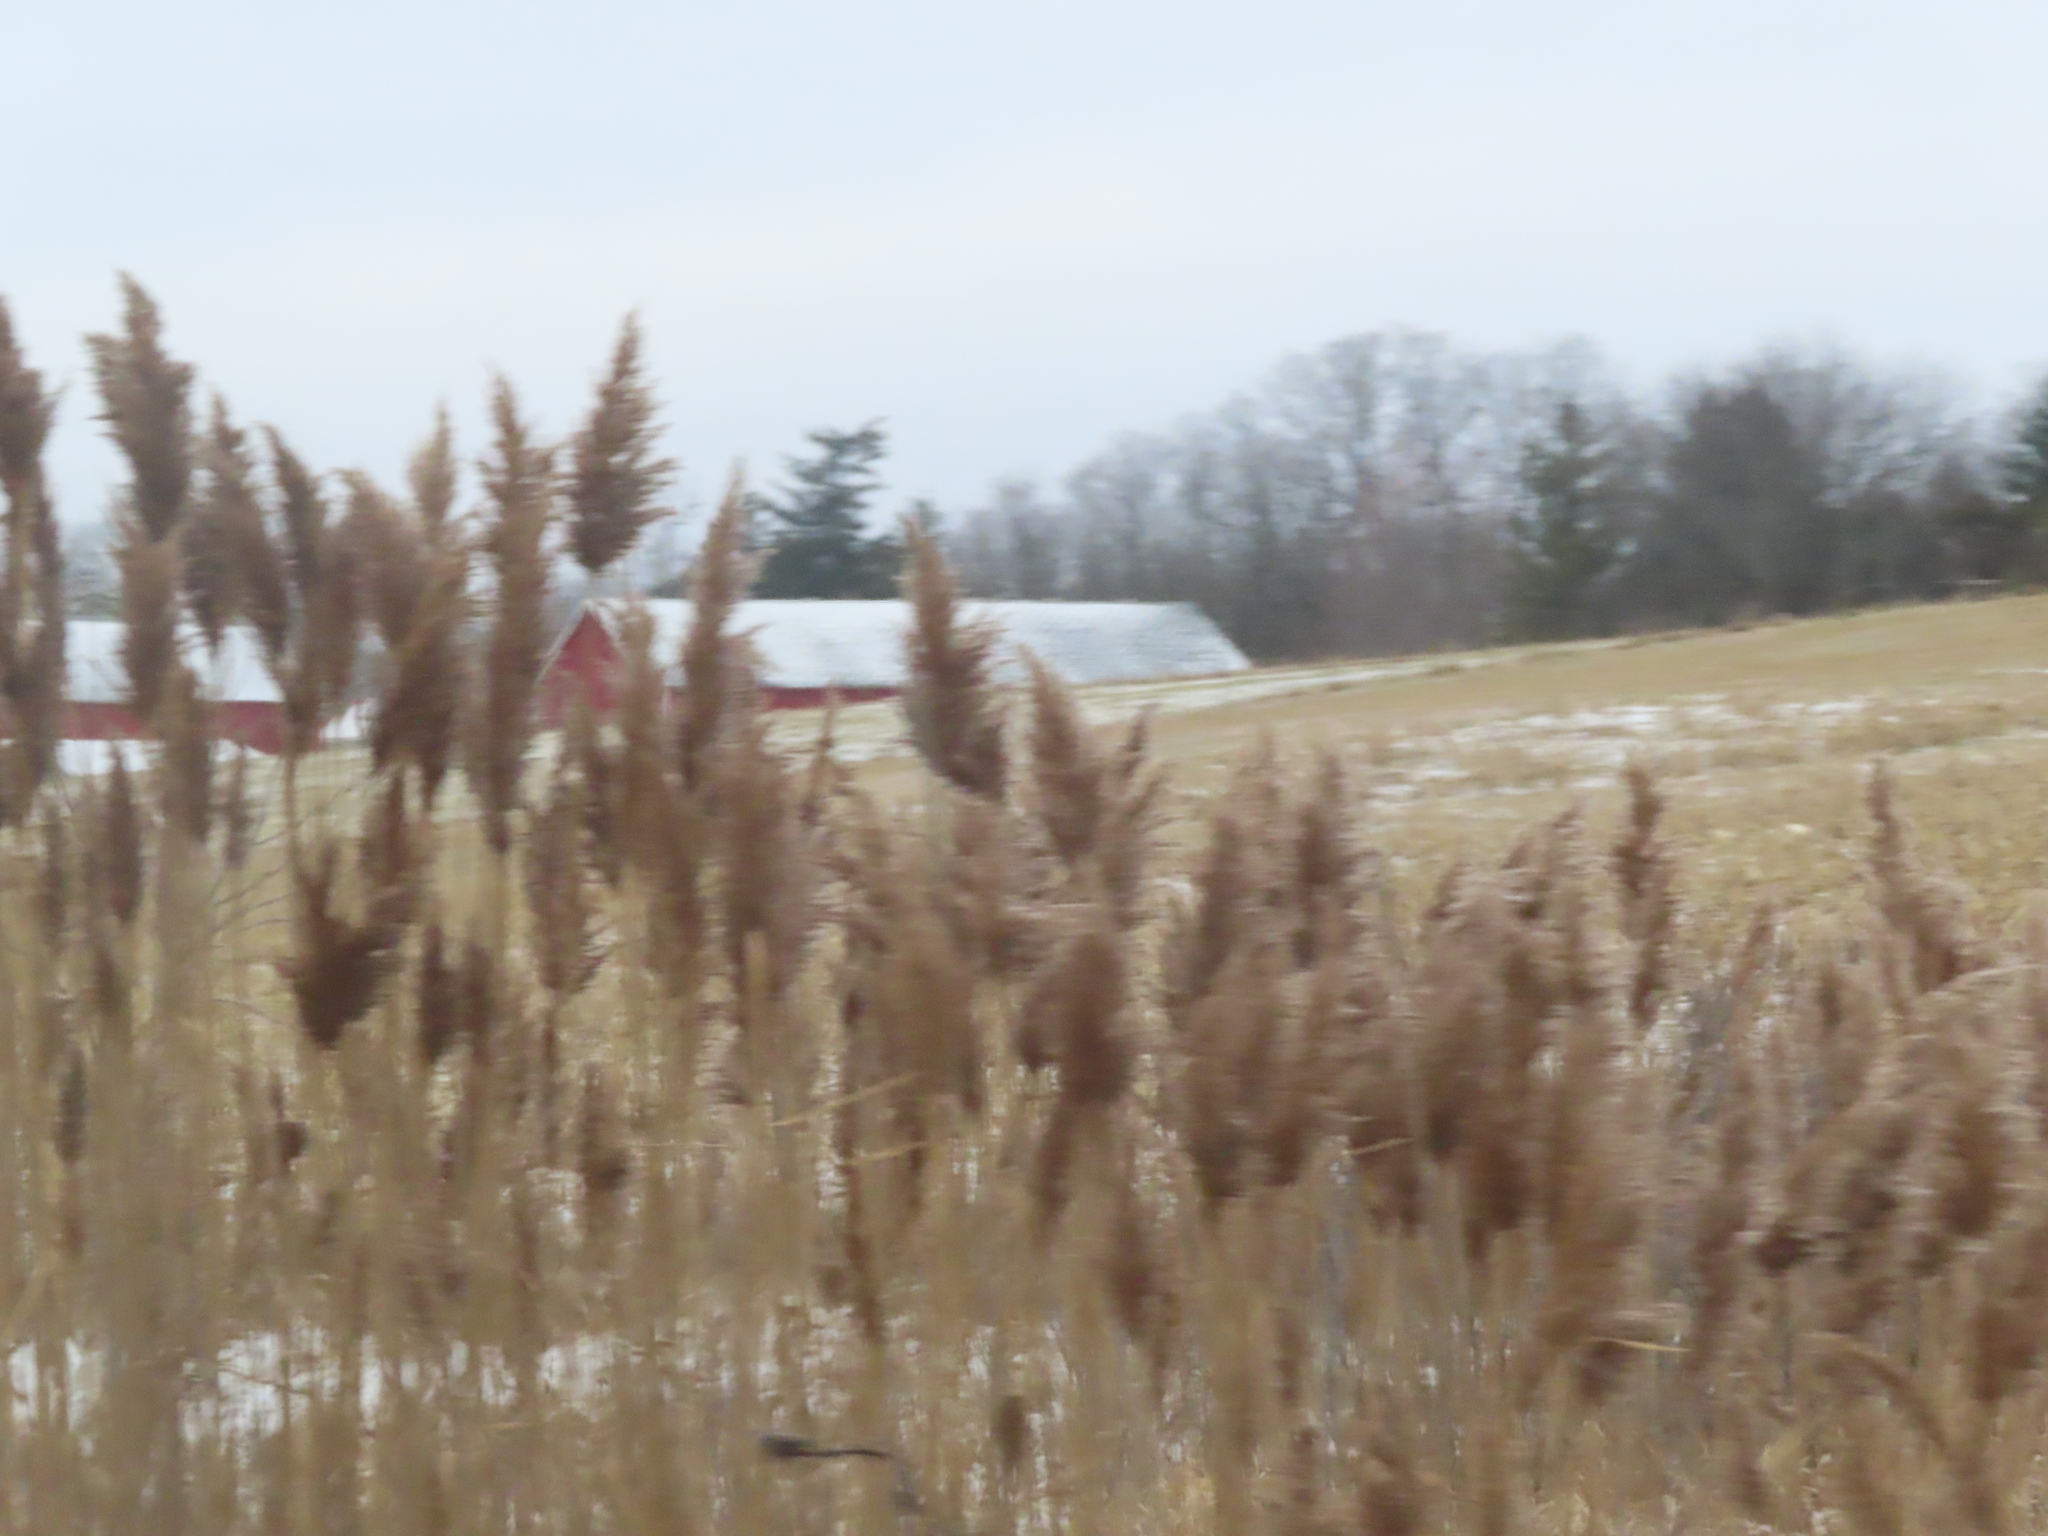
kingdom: Plantae
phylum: Tracheophyta
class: Liliopsida
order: Poales
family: Poaceae
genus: Phragmites
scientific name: Phragmites australis
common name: Common reed
